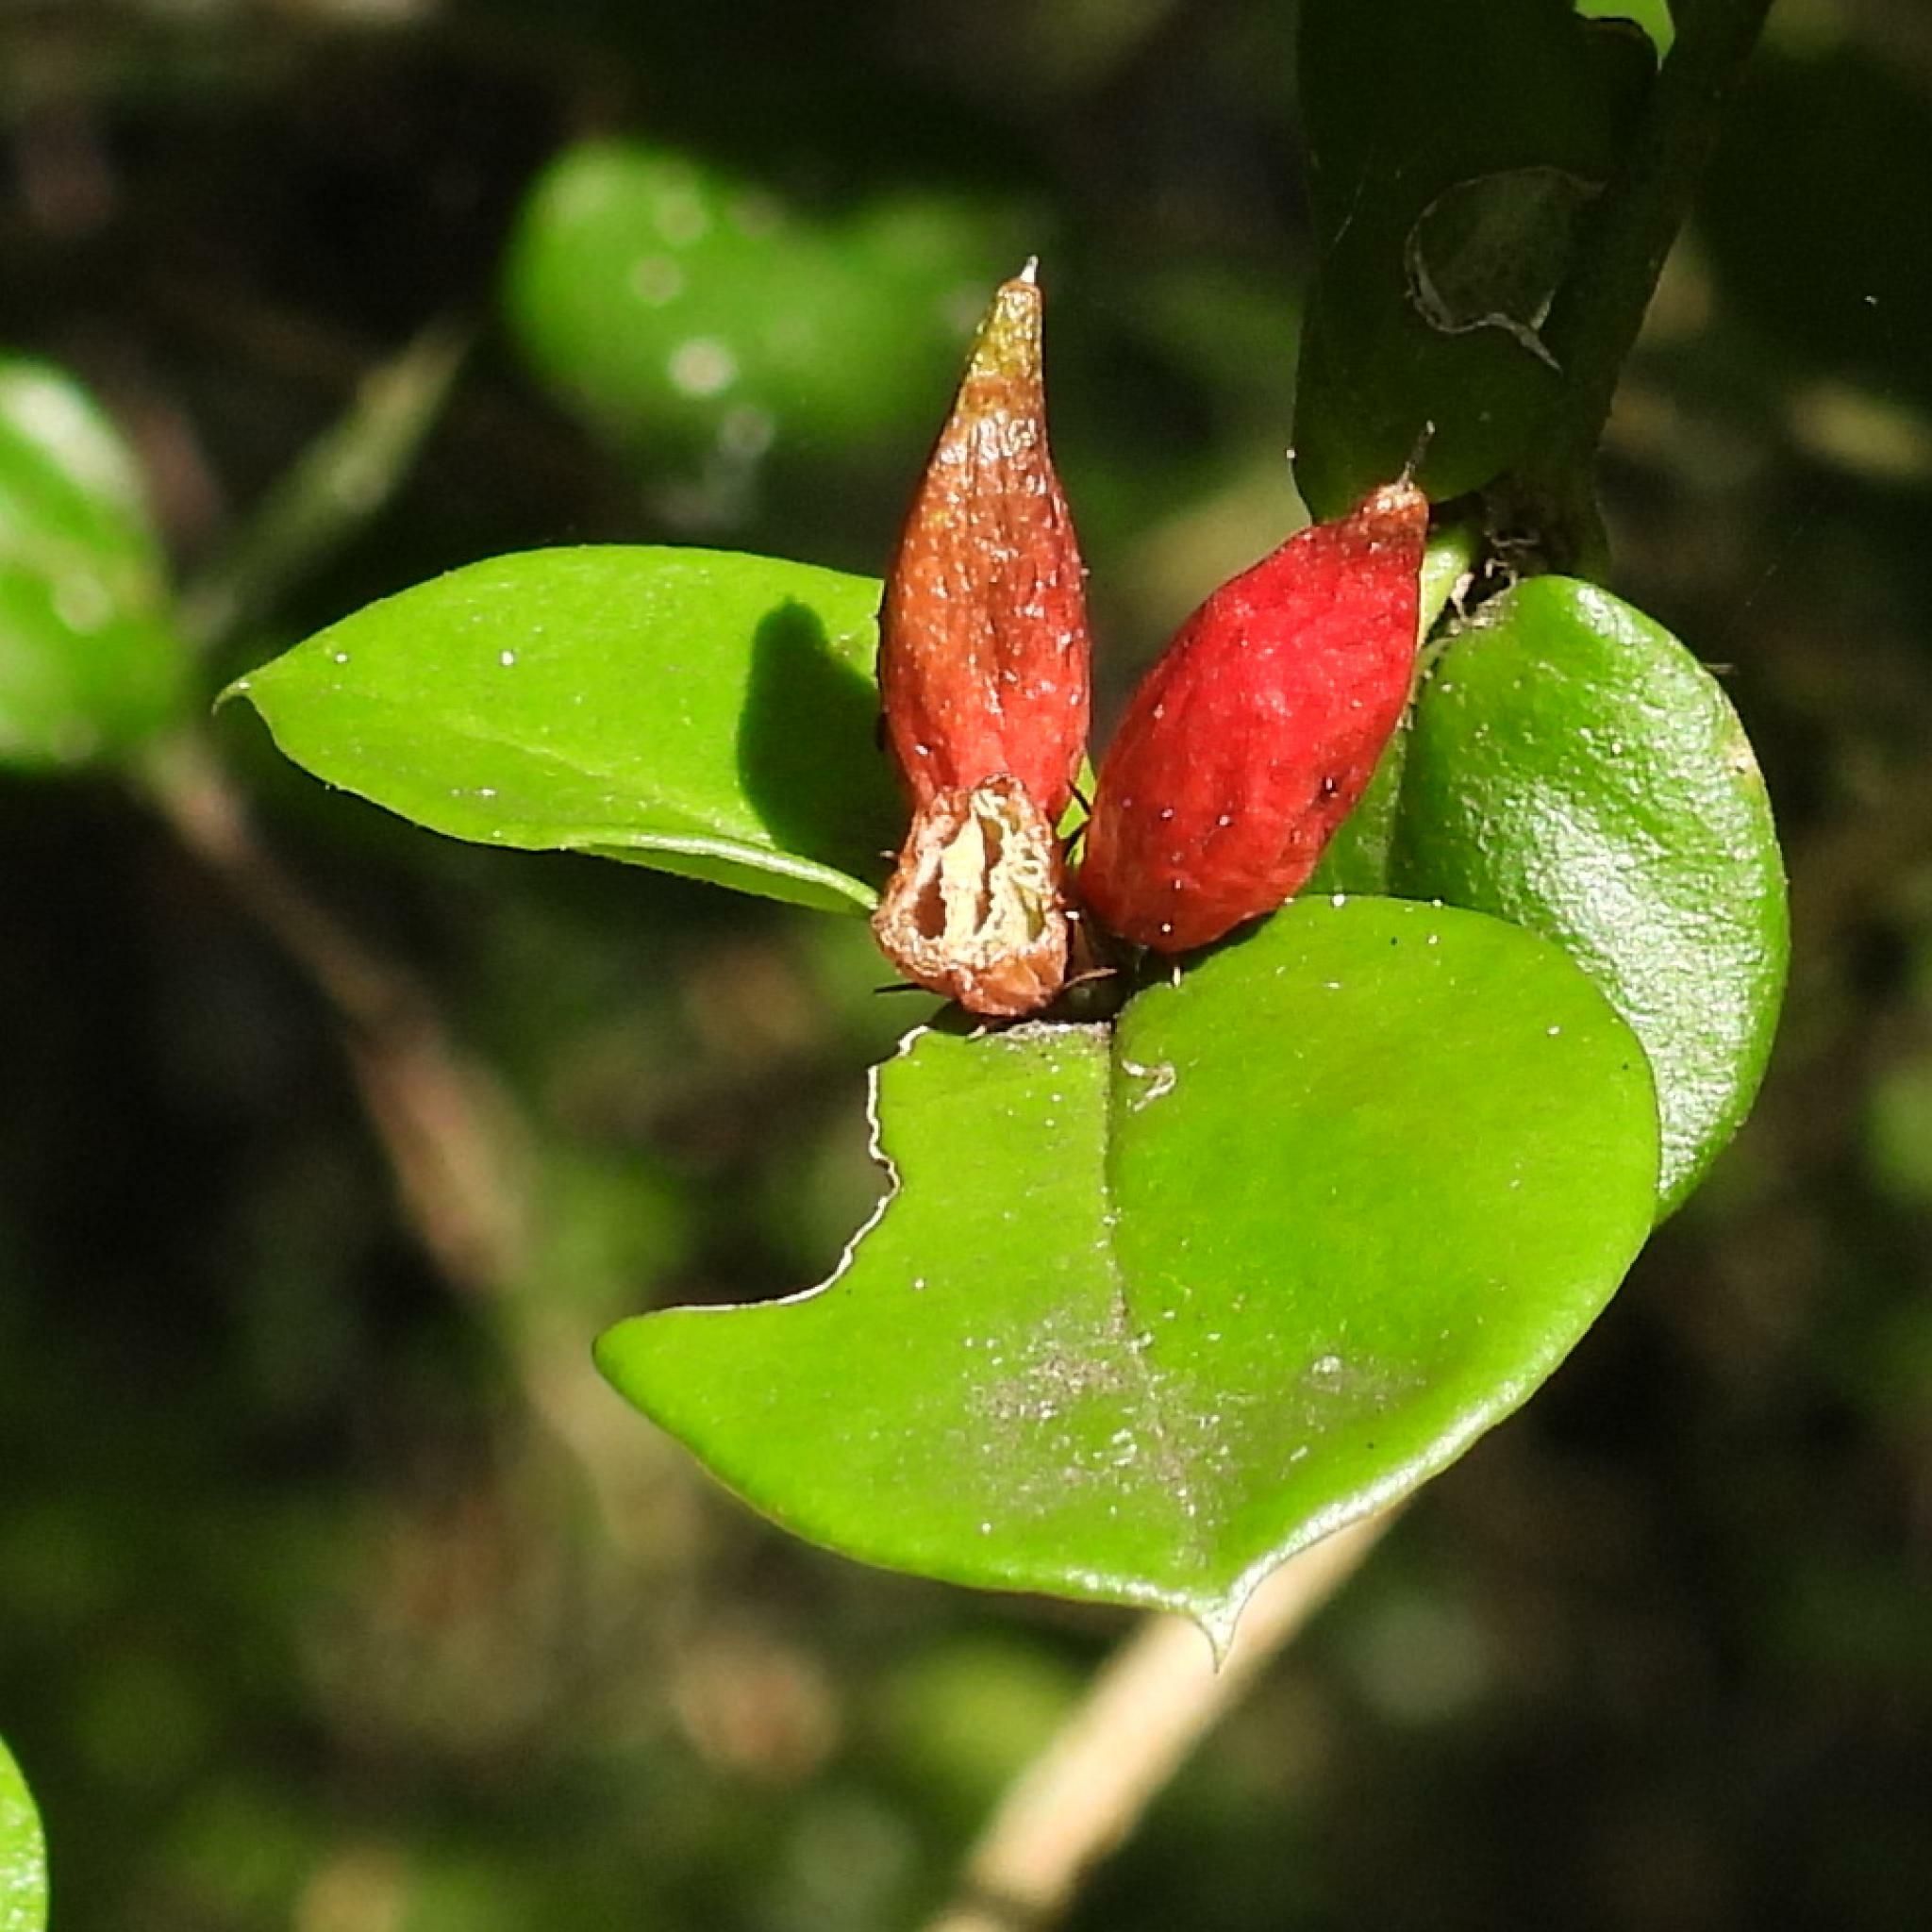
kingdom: Plantae
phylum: Tracheophyta
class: Magnoliopsida
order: Gentianales
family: Apocynaceae
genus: Carissa
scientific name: Carissa bispinosa
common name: Forest num-num
